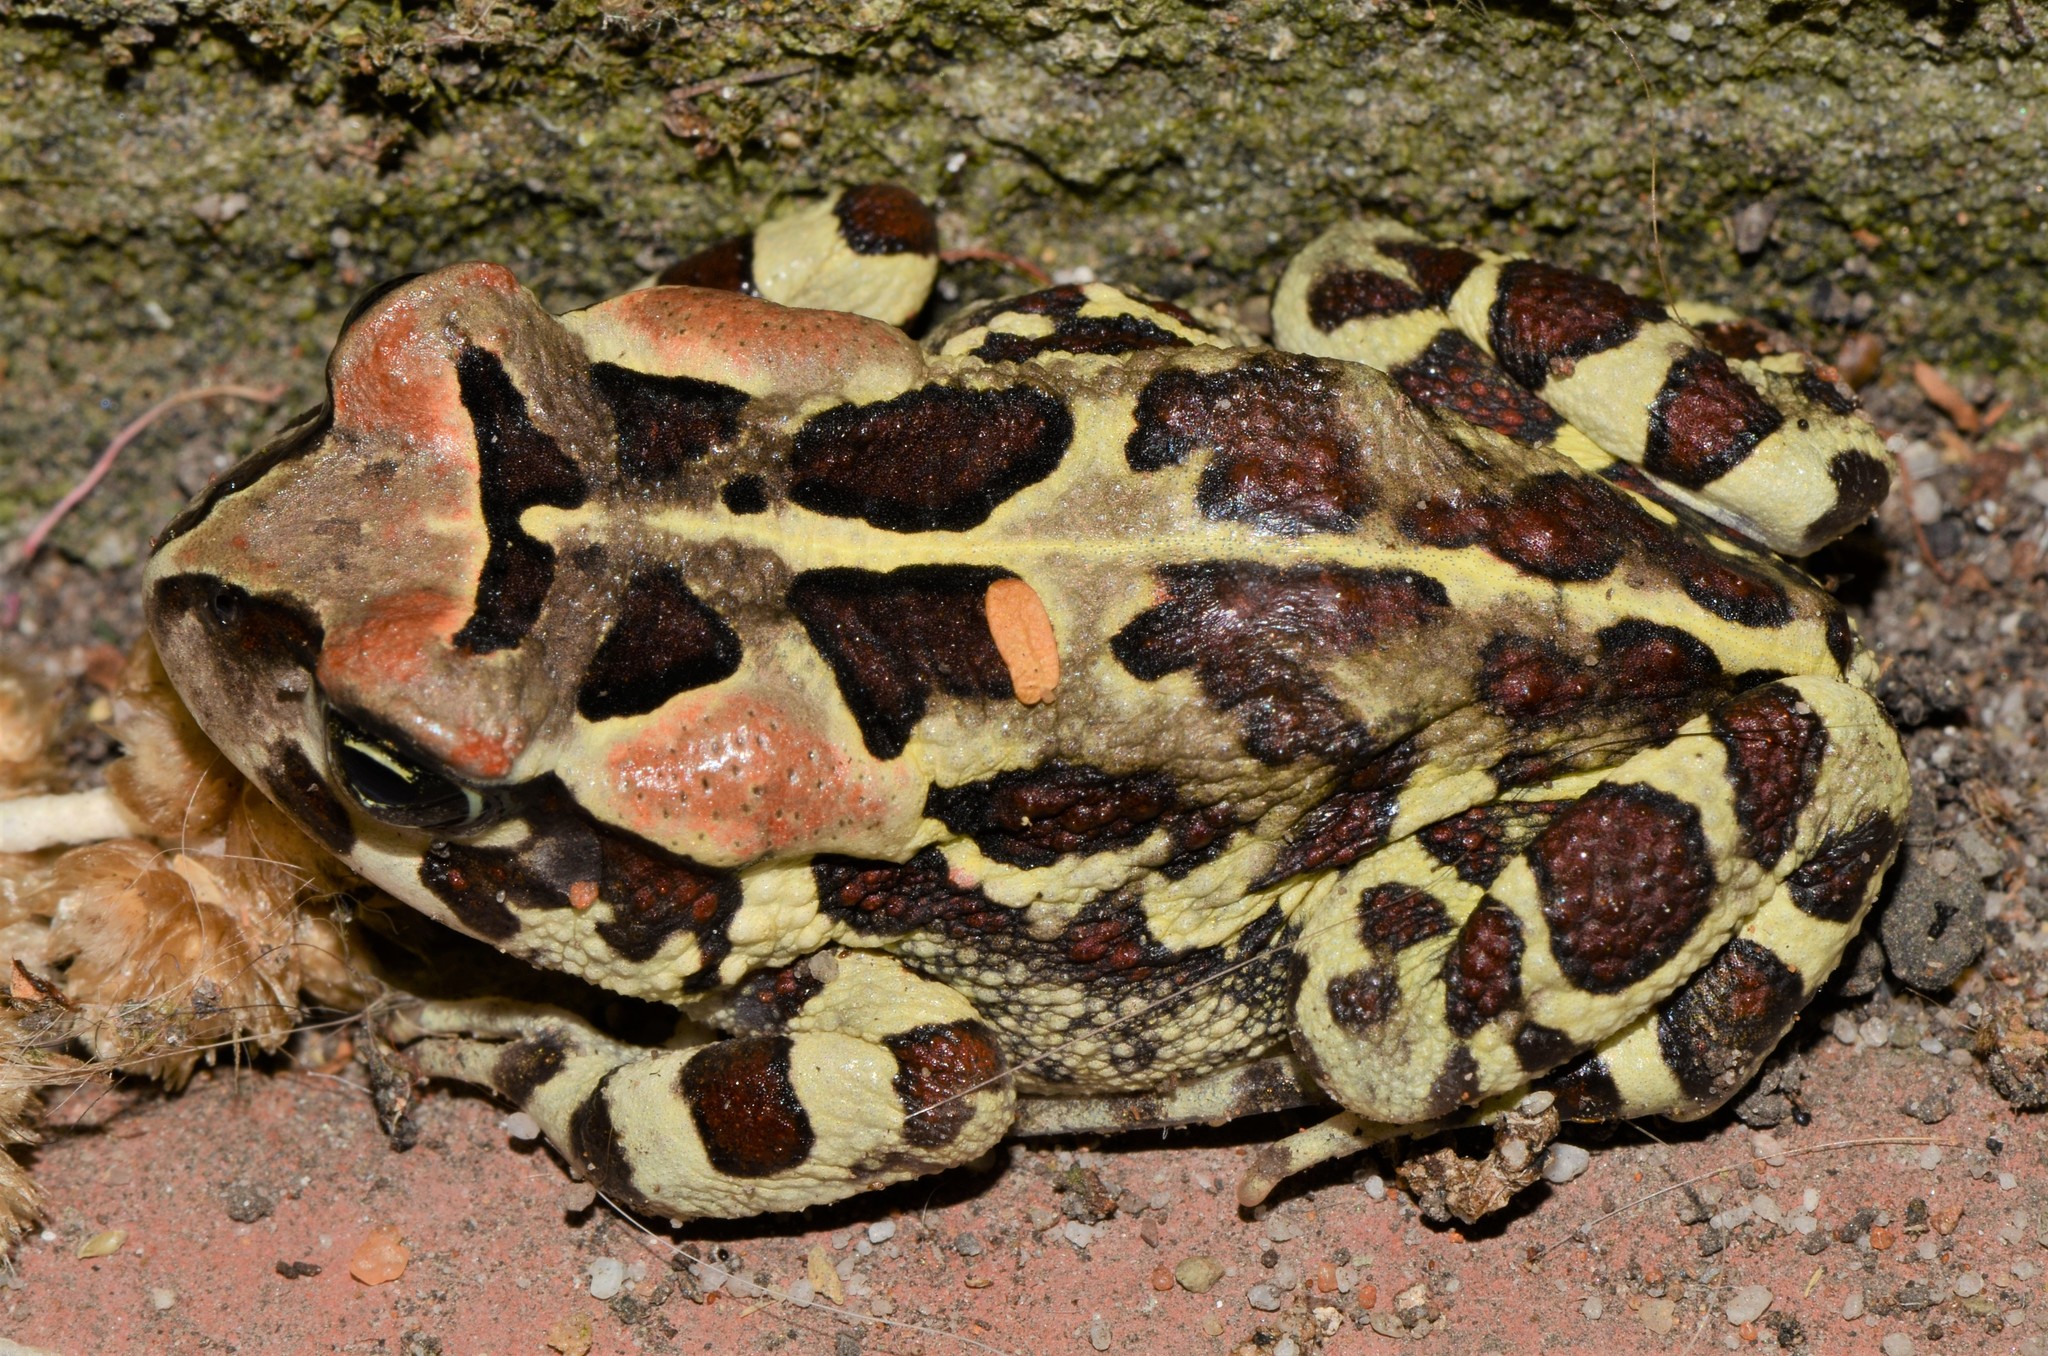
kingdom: Animalia
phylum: Chordata
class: Amphibia
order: Anura
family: Bufonidae
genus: Sclerophrys
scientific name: Sclerophrys pantherina
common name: Panther toad
